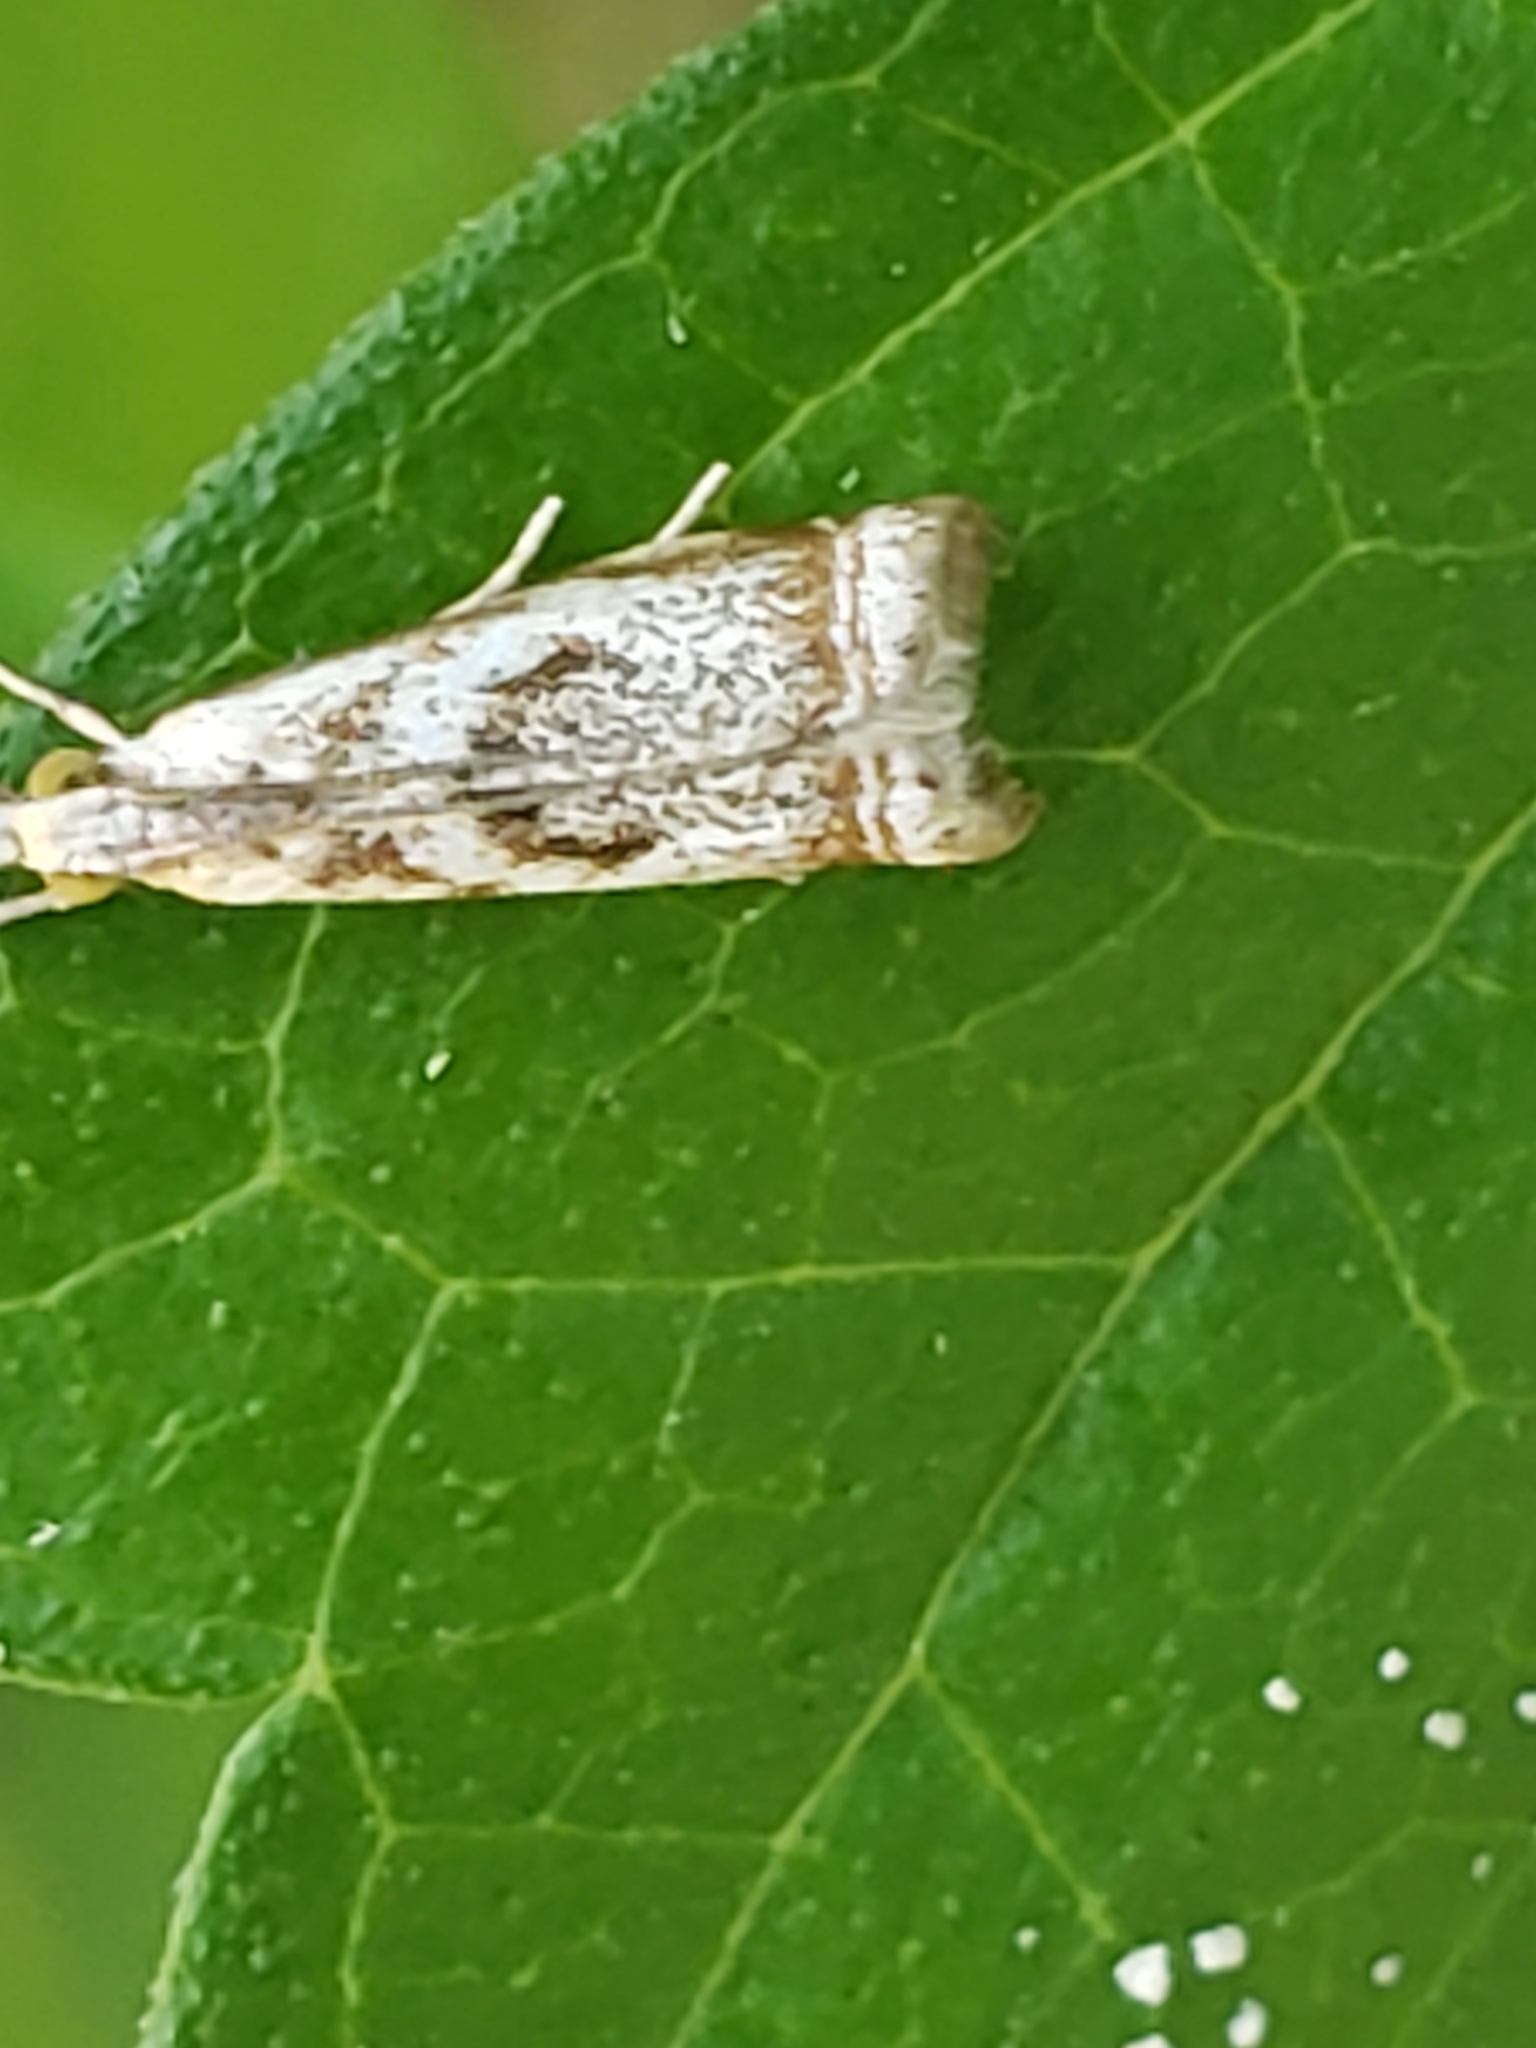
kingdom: Animalia
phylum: Arthropoda
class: Insecta
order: Lepidoptera
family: Crambidae
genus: Microcrambus
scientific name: Microcrambus elegans
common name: Elegant grass-veneer
